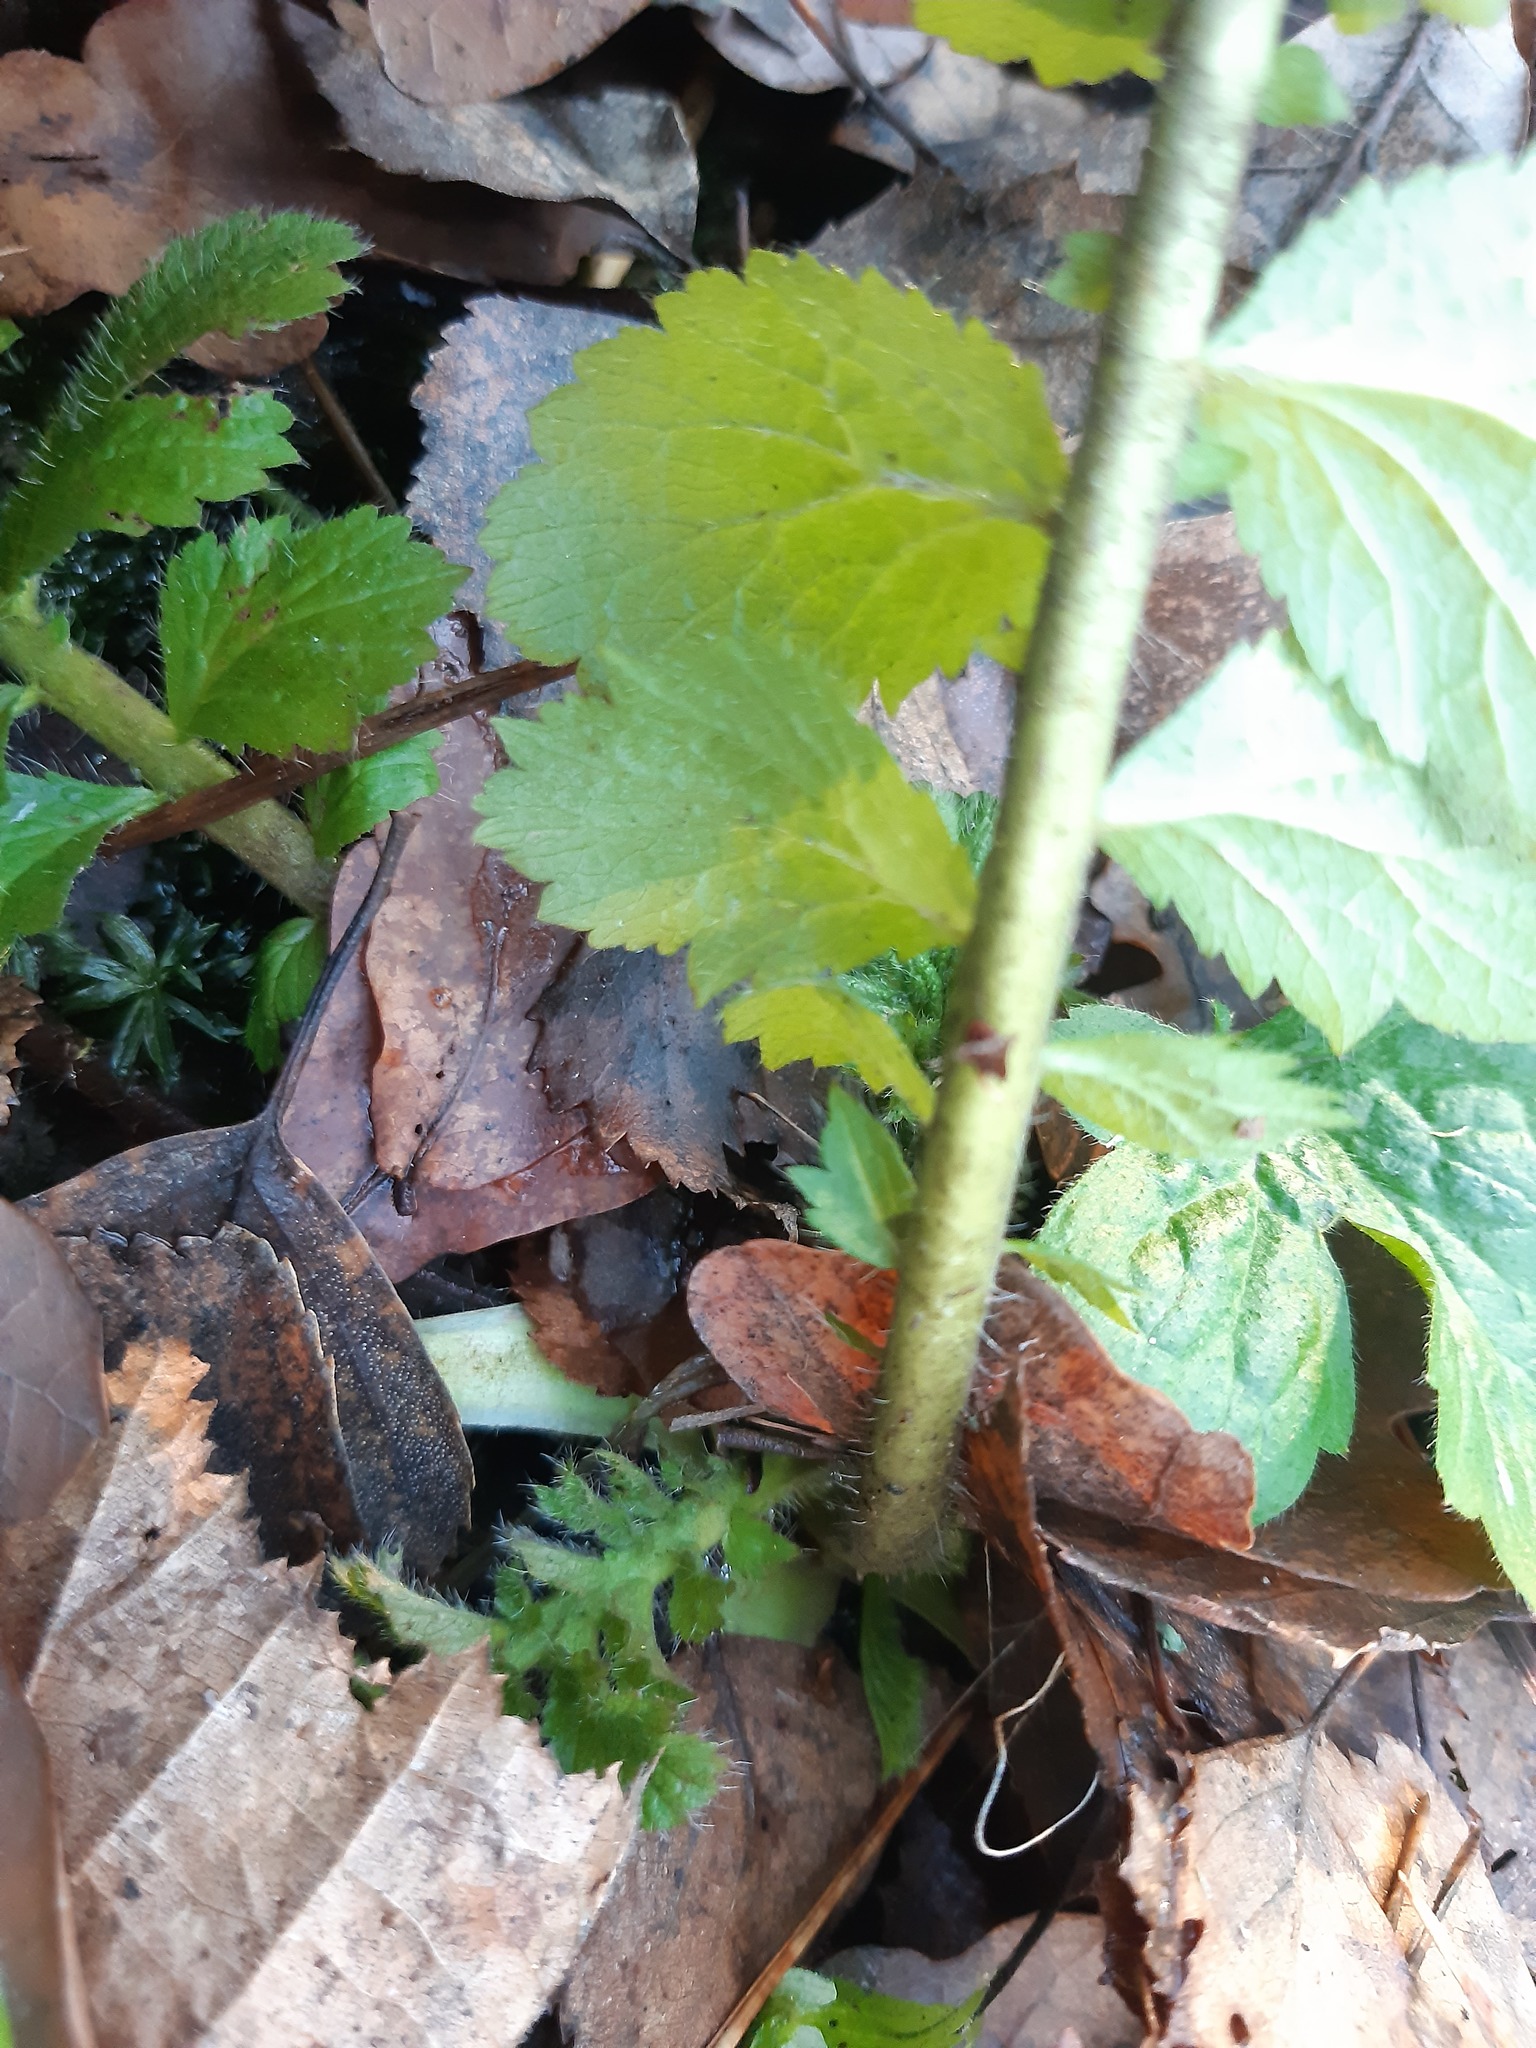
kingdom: Plantae
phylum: Tracheophyta
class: Magnoliopsida
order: Rosales
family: Rosaceae
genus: Geum
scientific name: Geum macrophyllum
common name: Large-leaved avens
